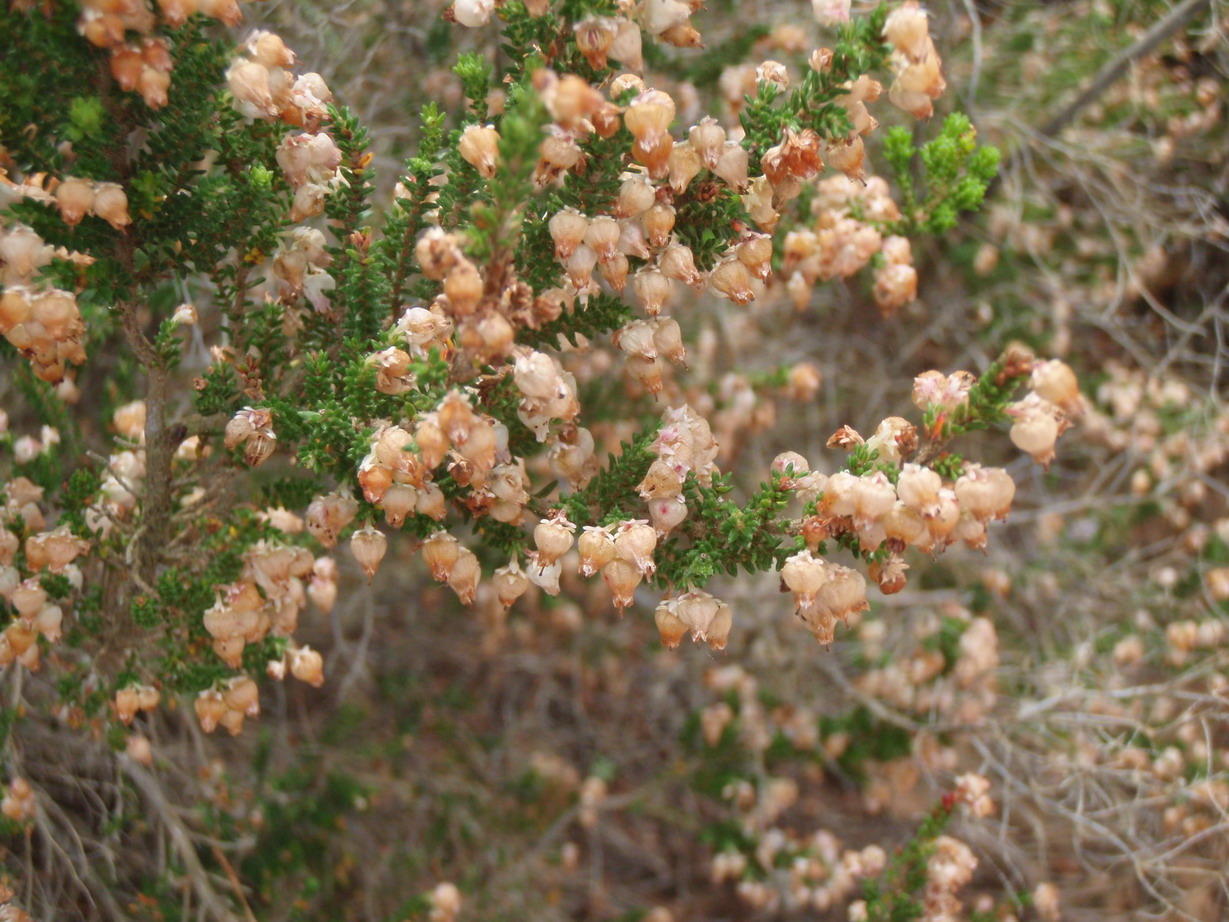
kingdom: Plantae
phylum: Tracheophyta
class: Magnoliopsida
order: Ericales
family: Ericaceae
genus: Erica
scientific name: Erica glomiflora
